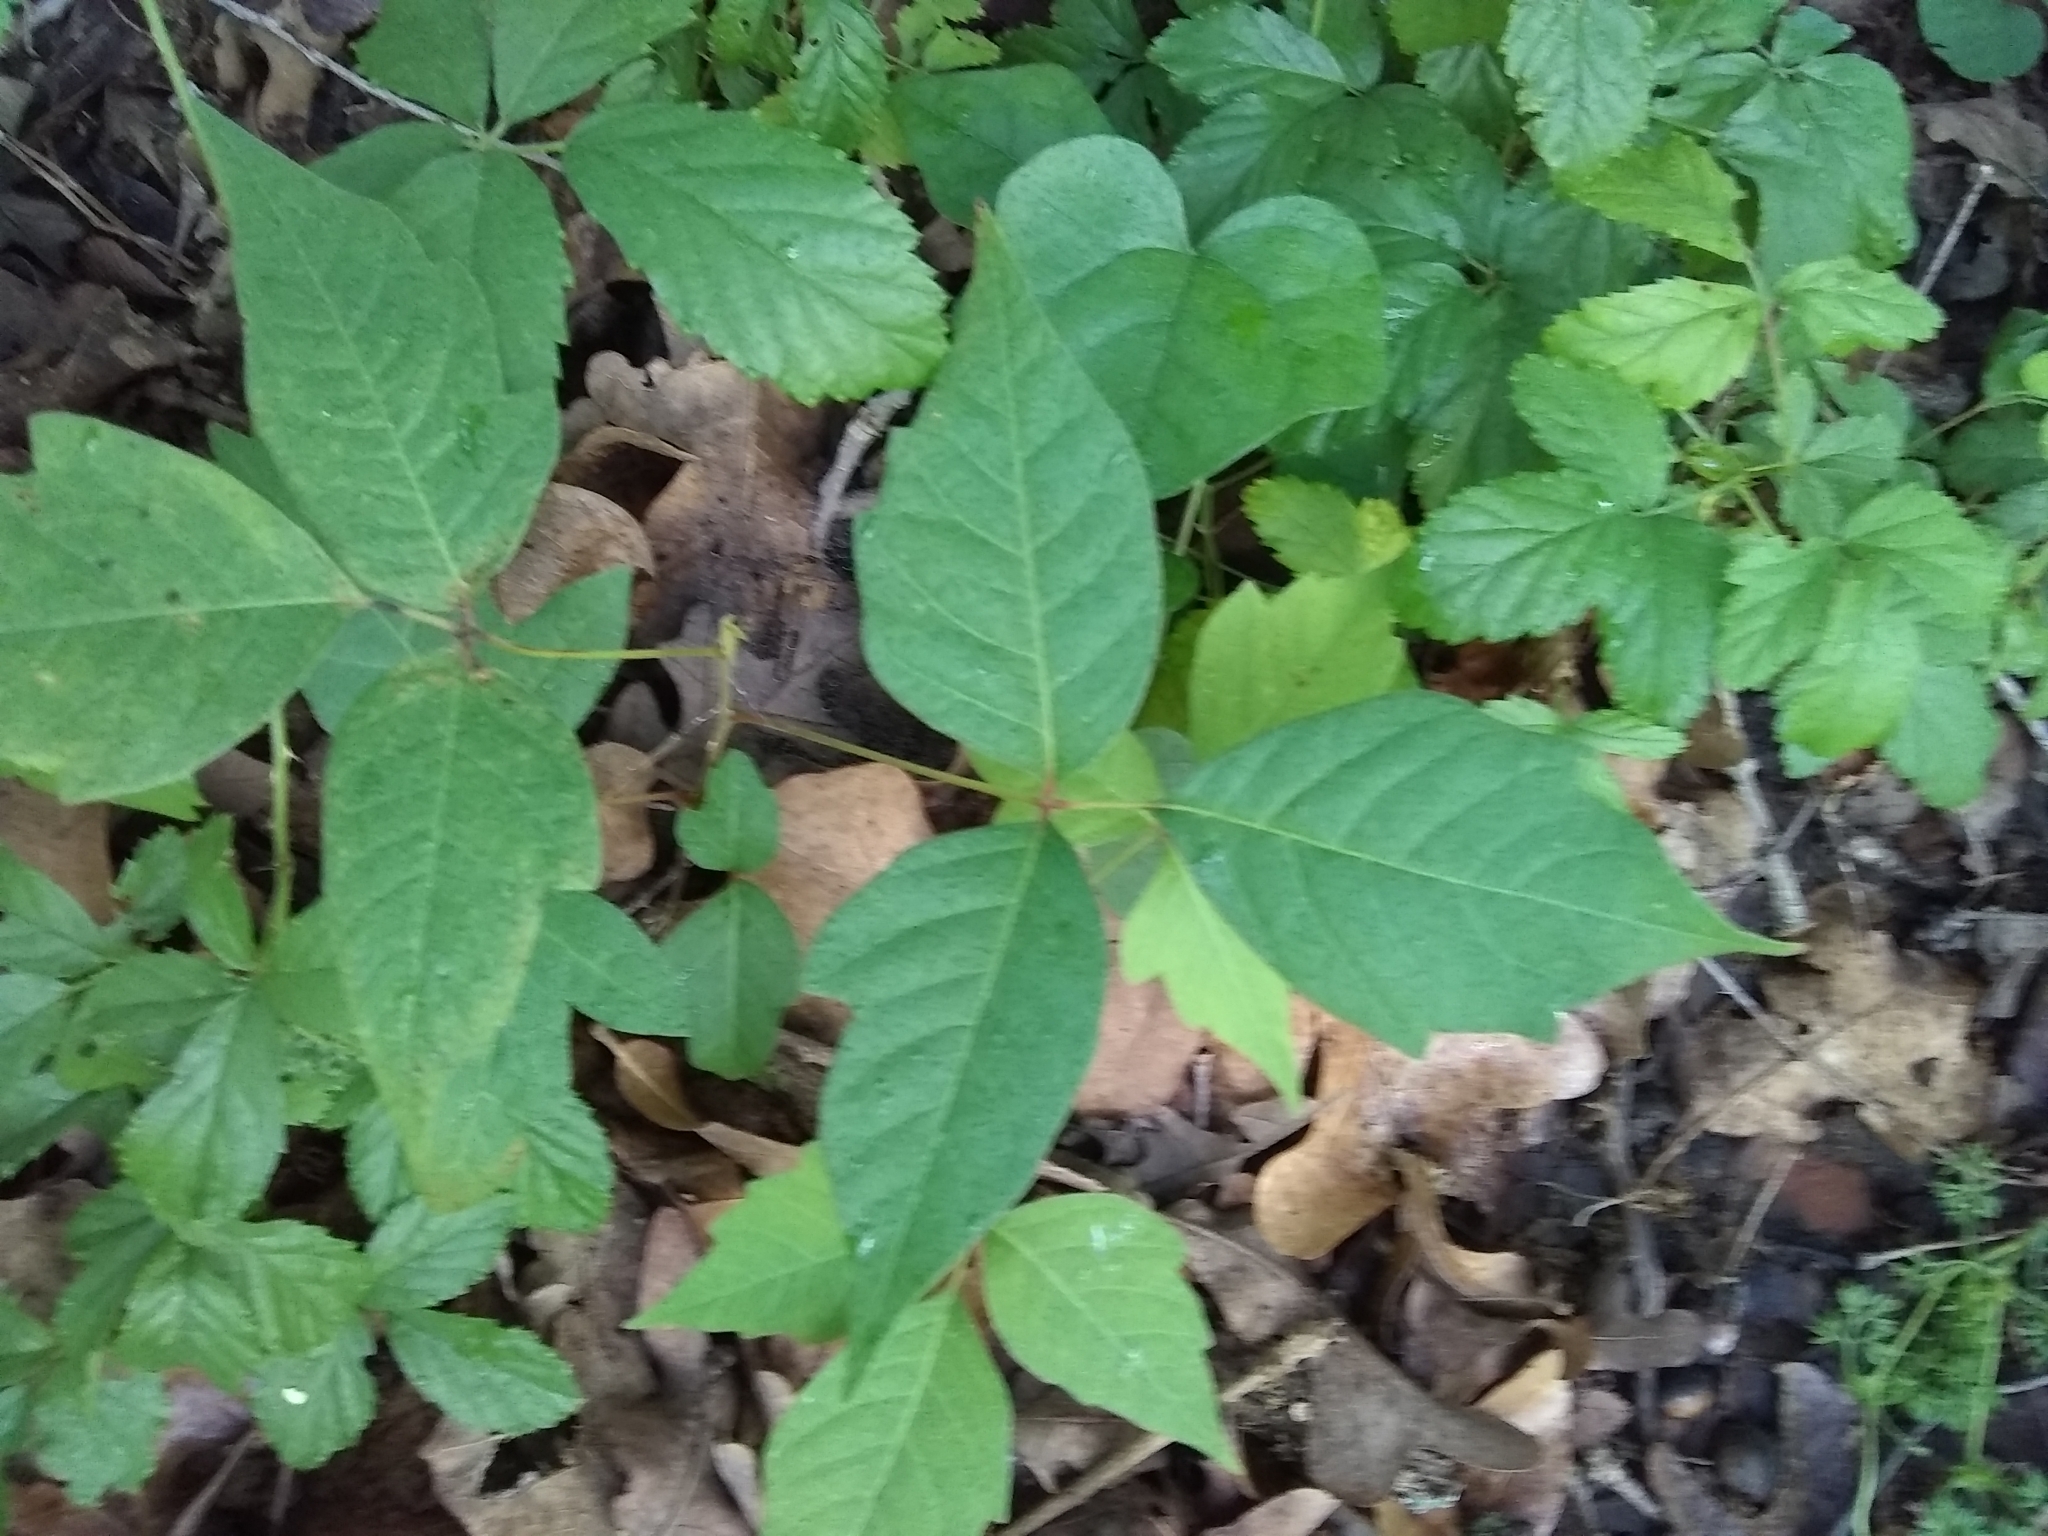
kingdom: Plantae
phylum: Tracheophyta
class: Magnoliopsida
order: Sapindales
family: Anacardiaceae
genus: Toxicodendron
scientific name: Toxicodendron radicans
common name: Poison ivy
